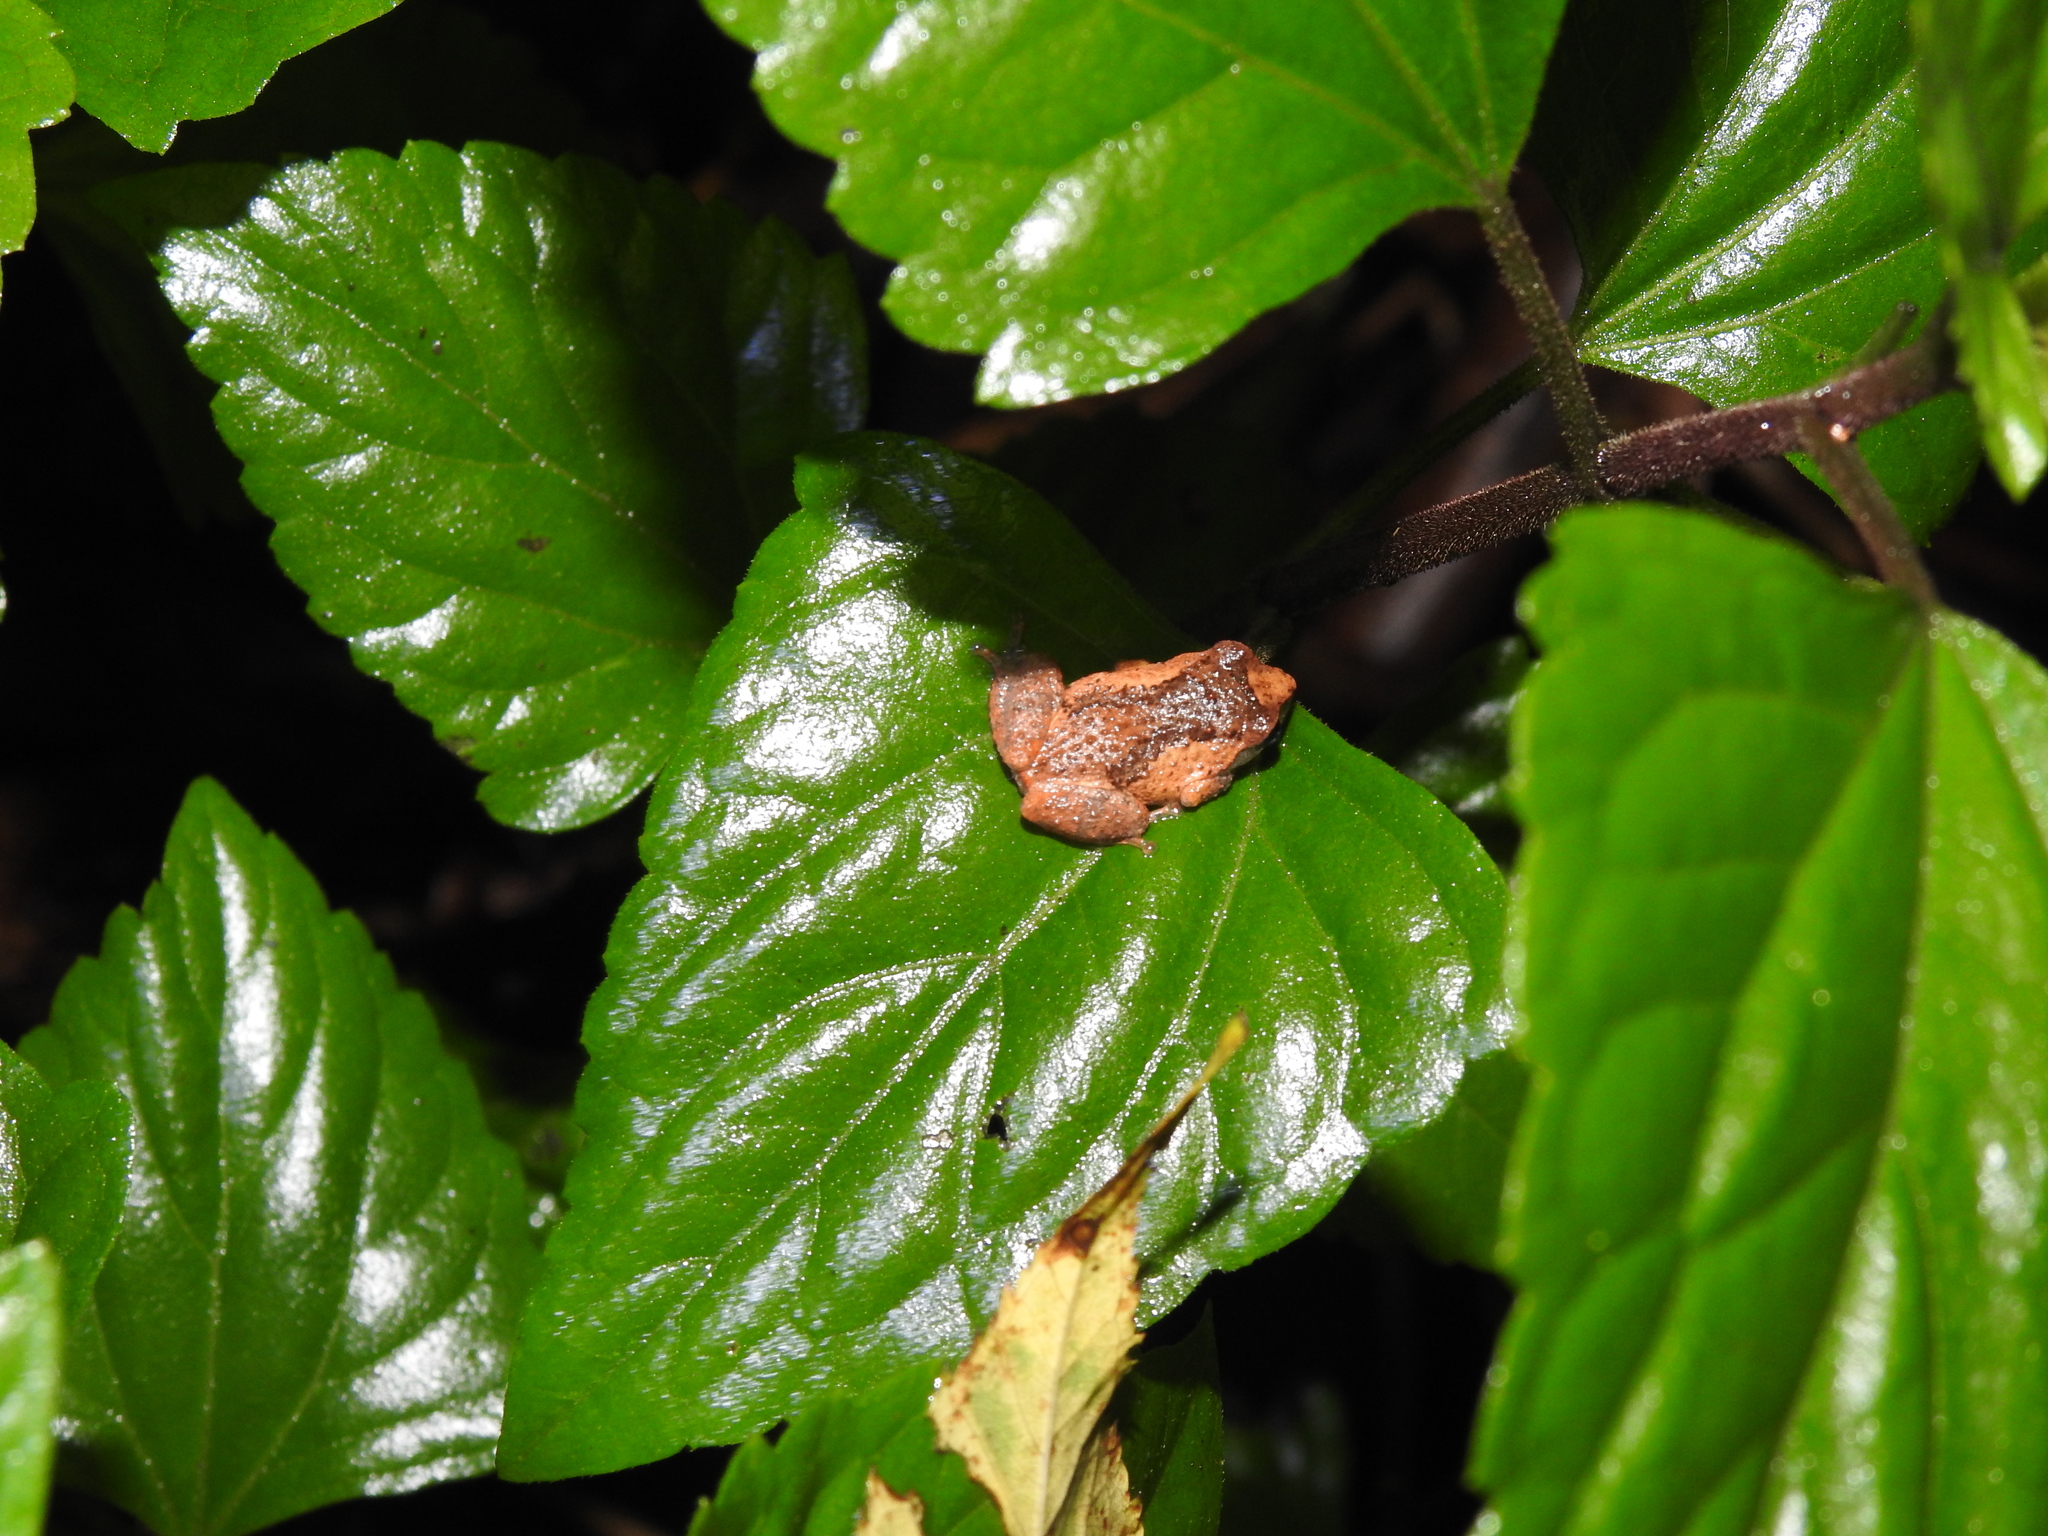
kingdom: Animalia
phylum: Chordata
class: Amphibia
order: Anura
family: Rhacophoridae
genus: Raorchestes
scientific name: Raorchestes dubois
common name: Koadaikanal bush frog
